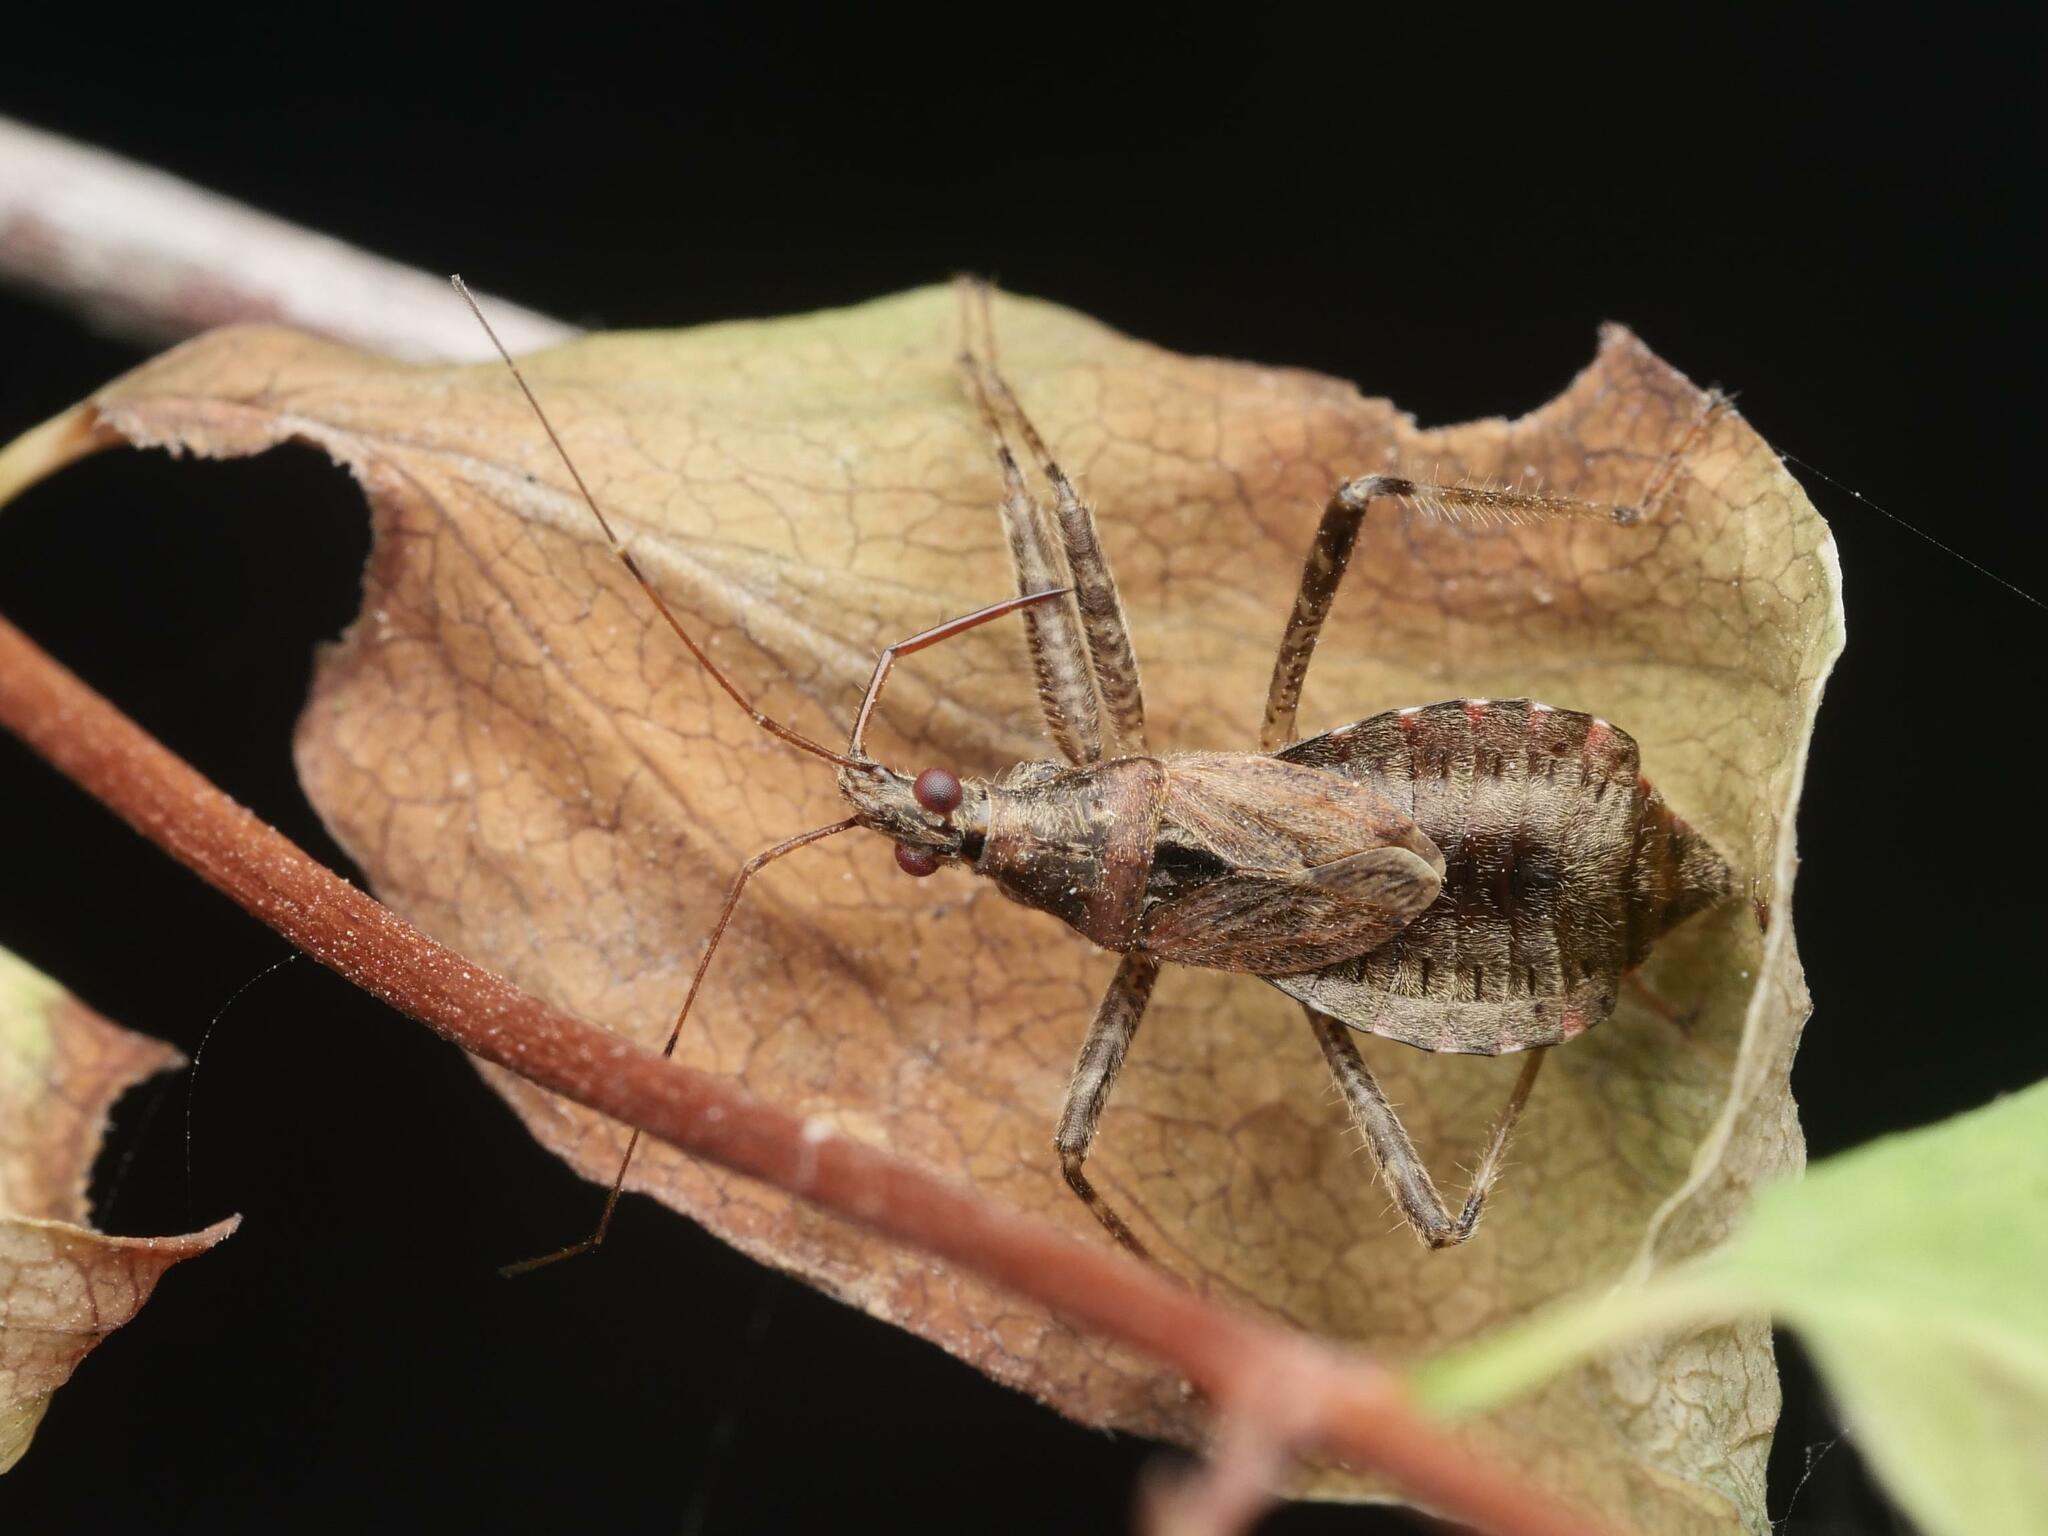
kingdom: Animalia
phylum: Arthropoda
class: Insecta
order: Hemiptera
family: Nabidae
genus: Himacerus
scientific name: Himacerus apterus
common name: Tree damsel bug
